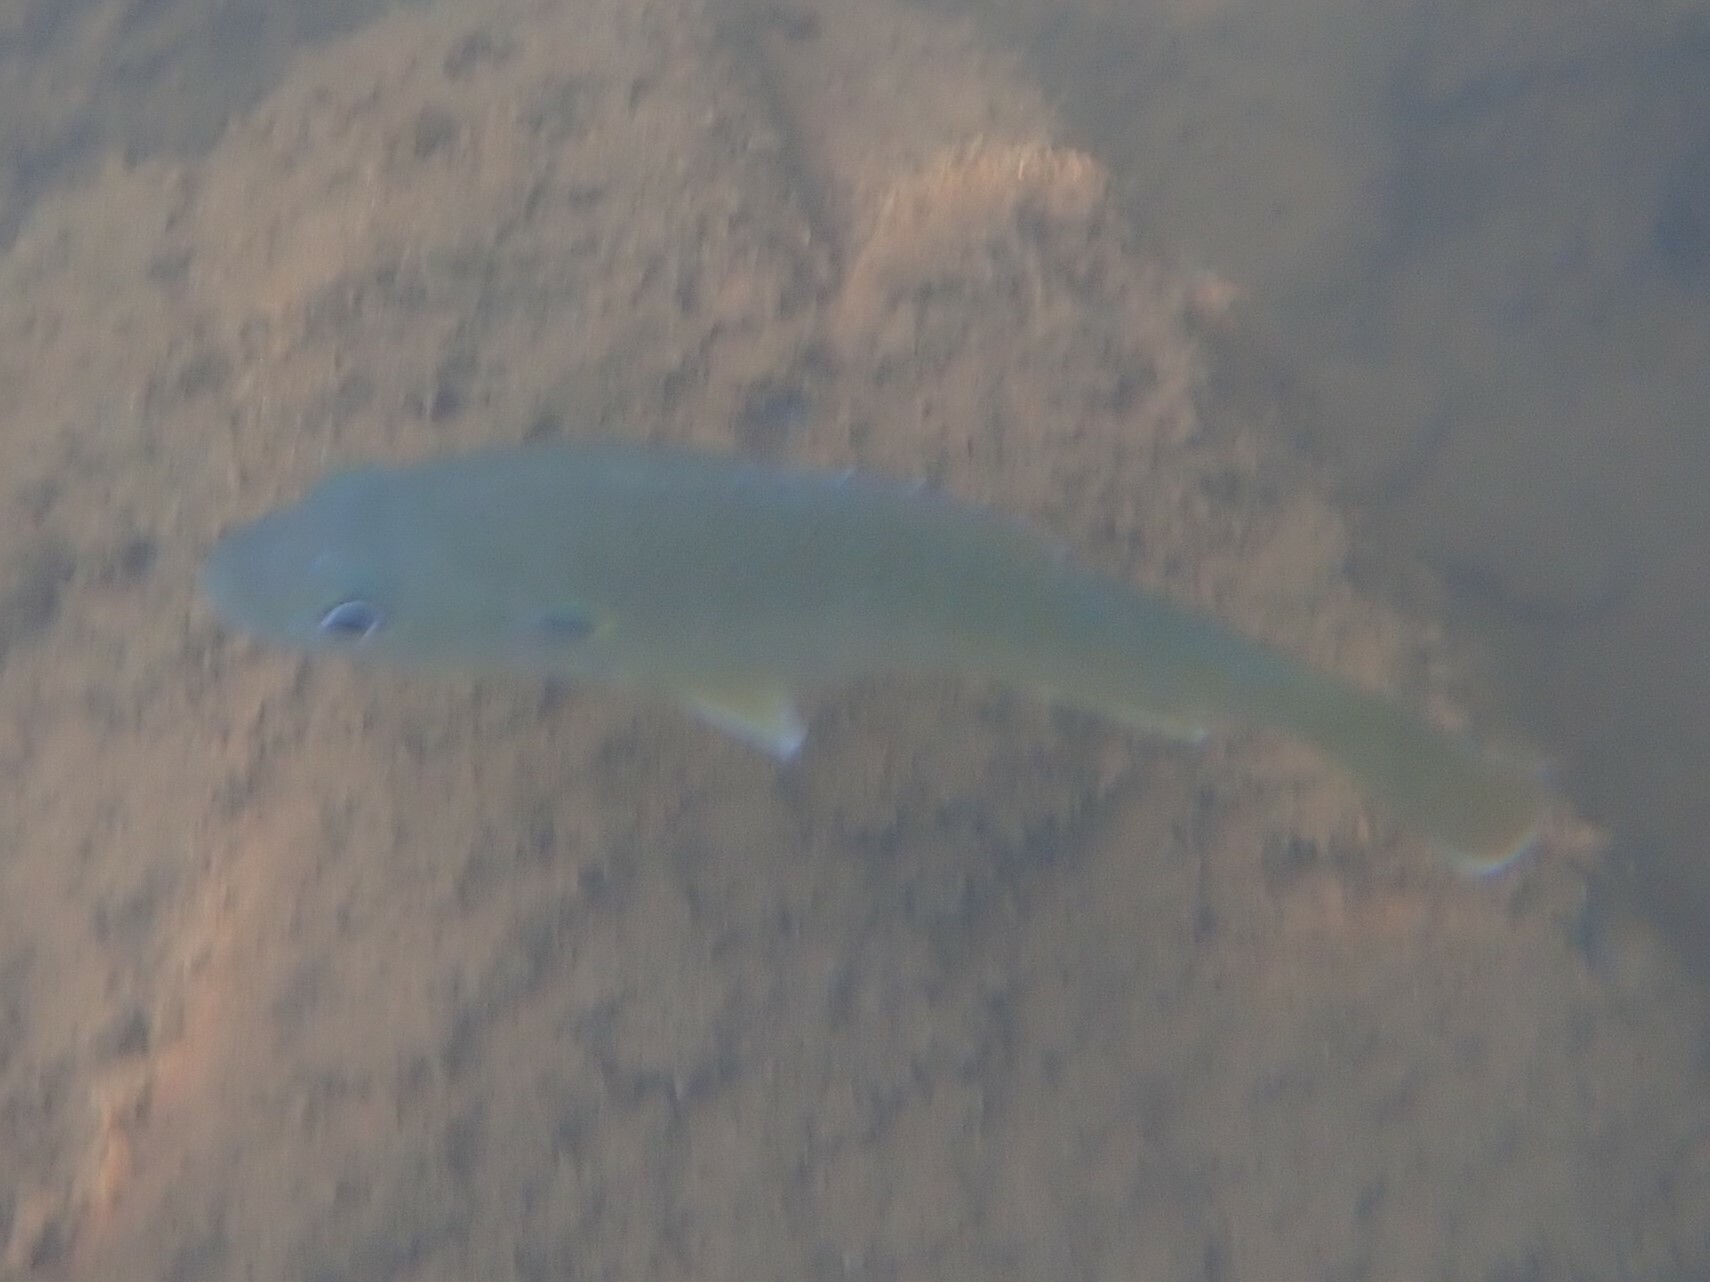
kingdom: Animalia
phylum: Chordata
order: Perciformes
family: Centrarchidae
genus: Lepomis
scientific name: Lepomis cyanellus
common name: Green sunfish
